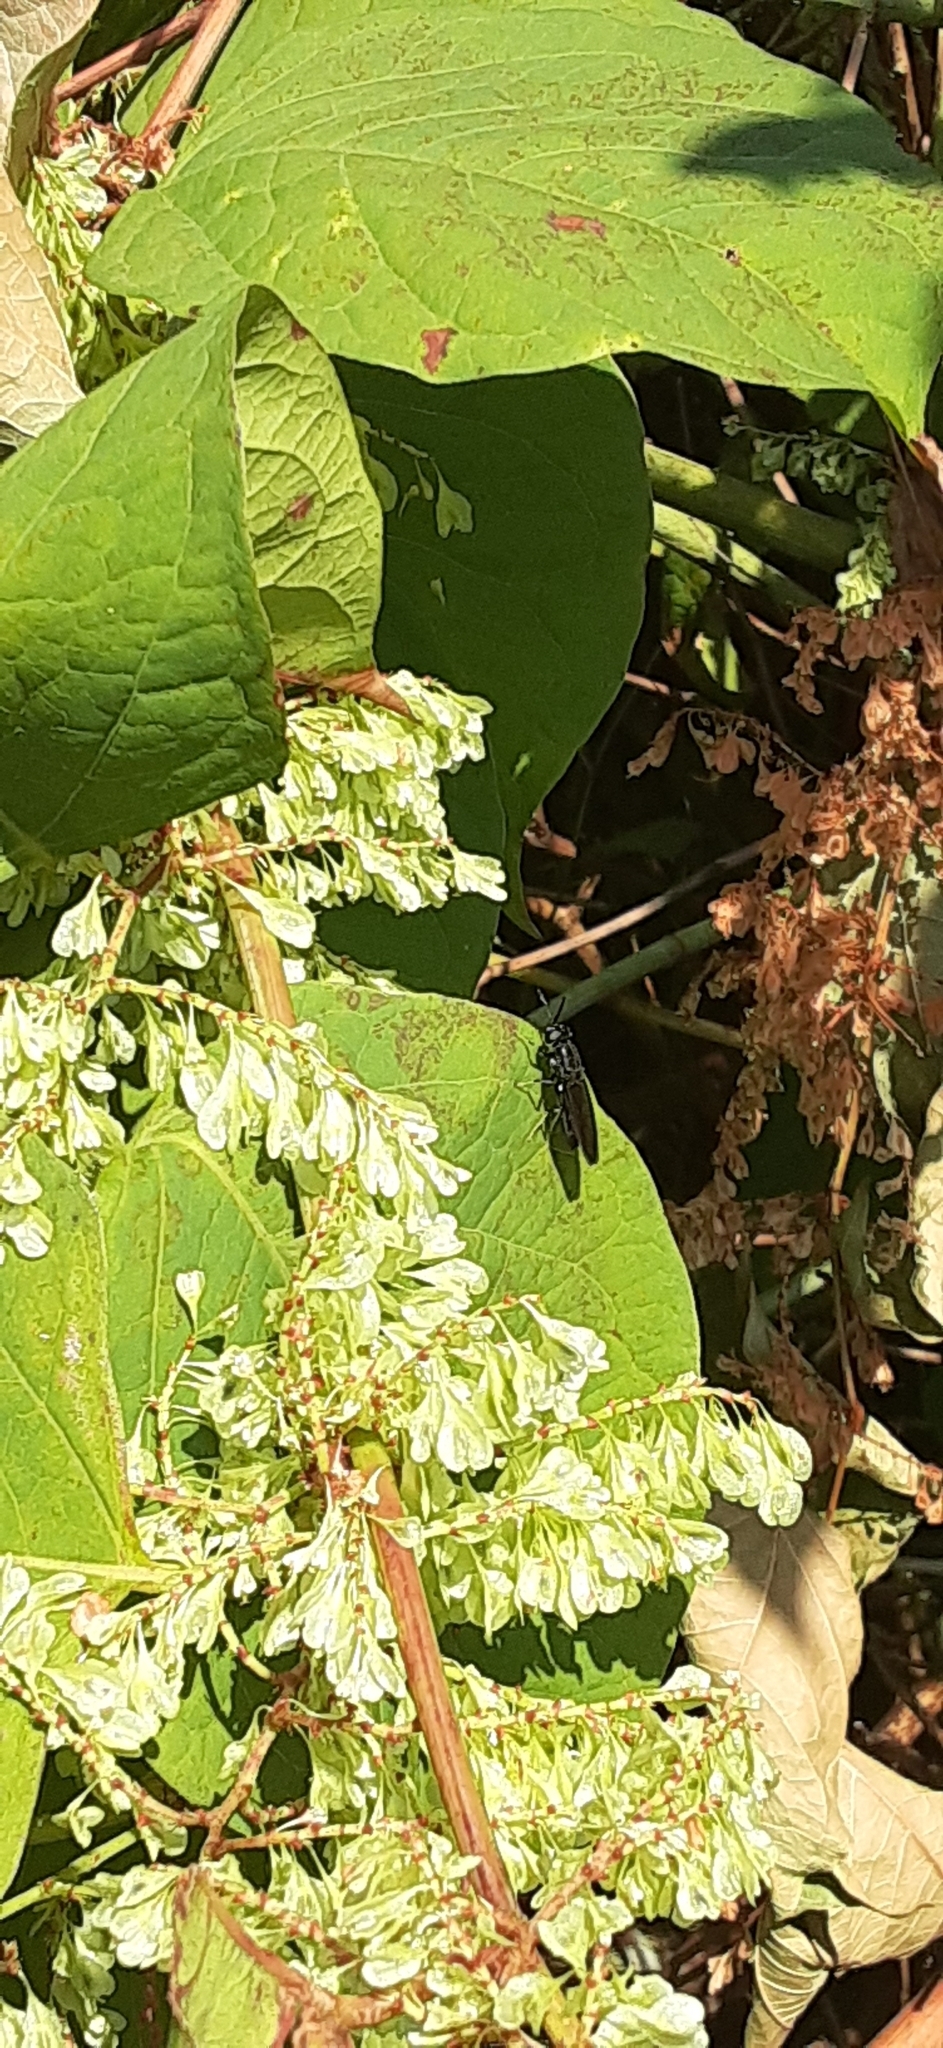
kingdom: Animalia
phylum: Arthropoda
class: Insecta
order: Diptera
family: Stratiomyidae
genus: Hermetia
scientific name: Hermetia illucens
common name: Black soldier fly
